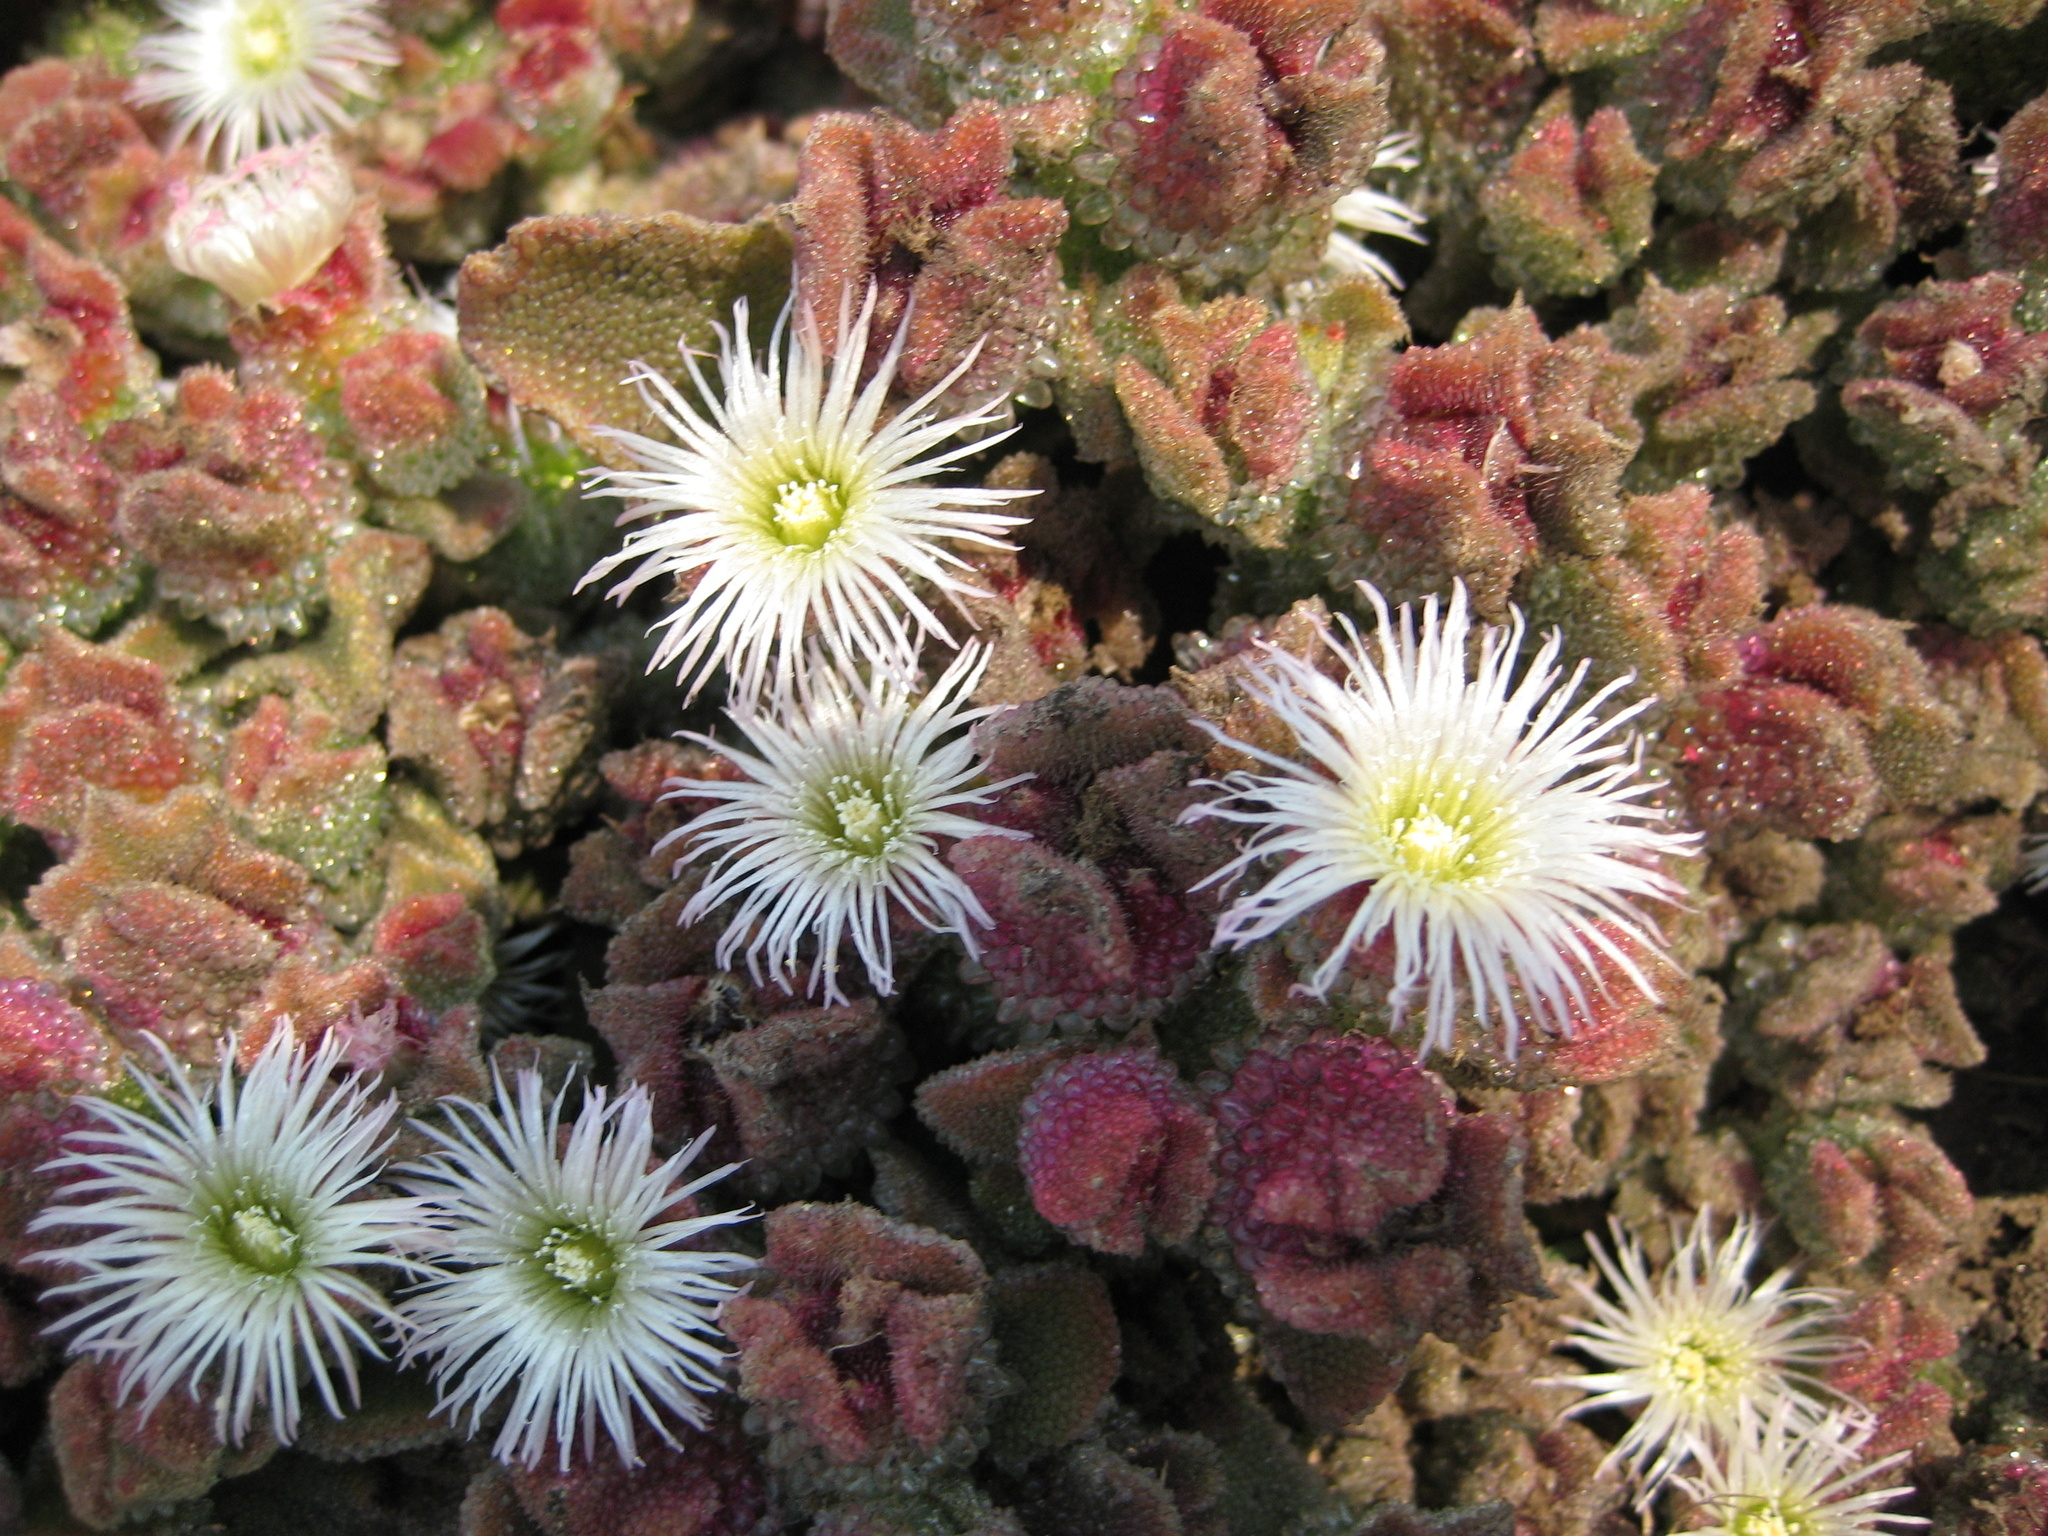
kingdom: Plantae
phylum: Tracheophyta
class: Magnoliopsida
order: Caryophyllales
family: Aizoaceae
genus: Mesembryanthemum
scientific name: Mesembryanthemum crystallinum
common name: Common iceplant
